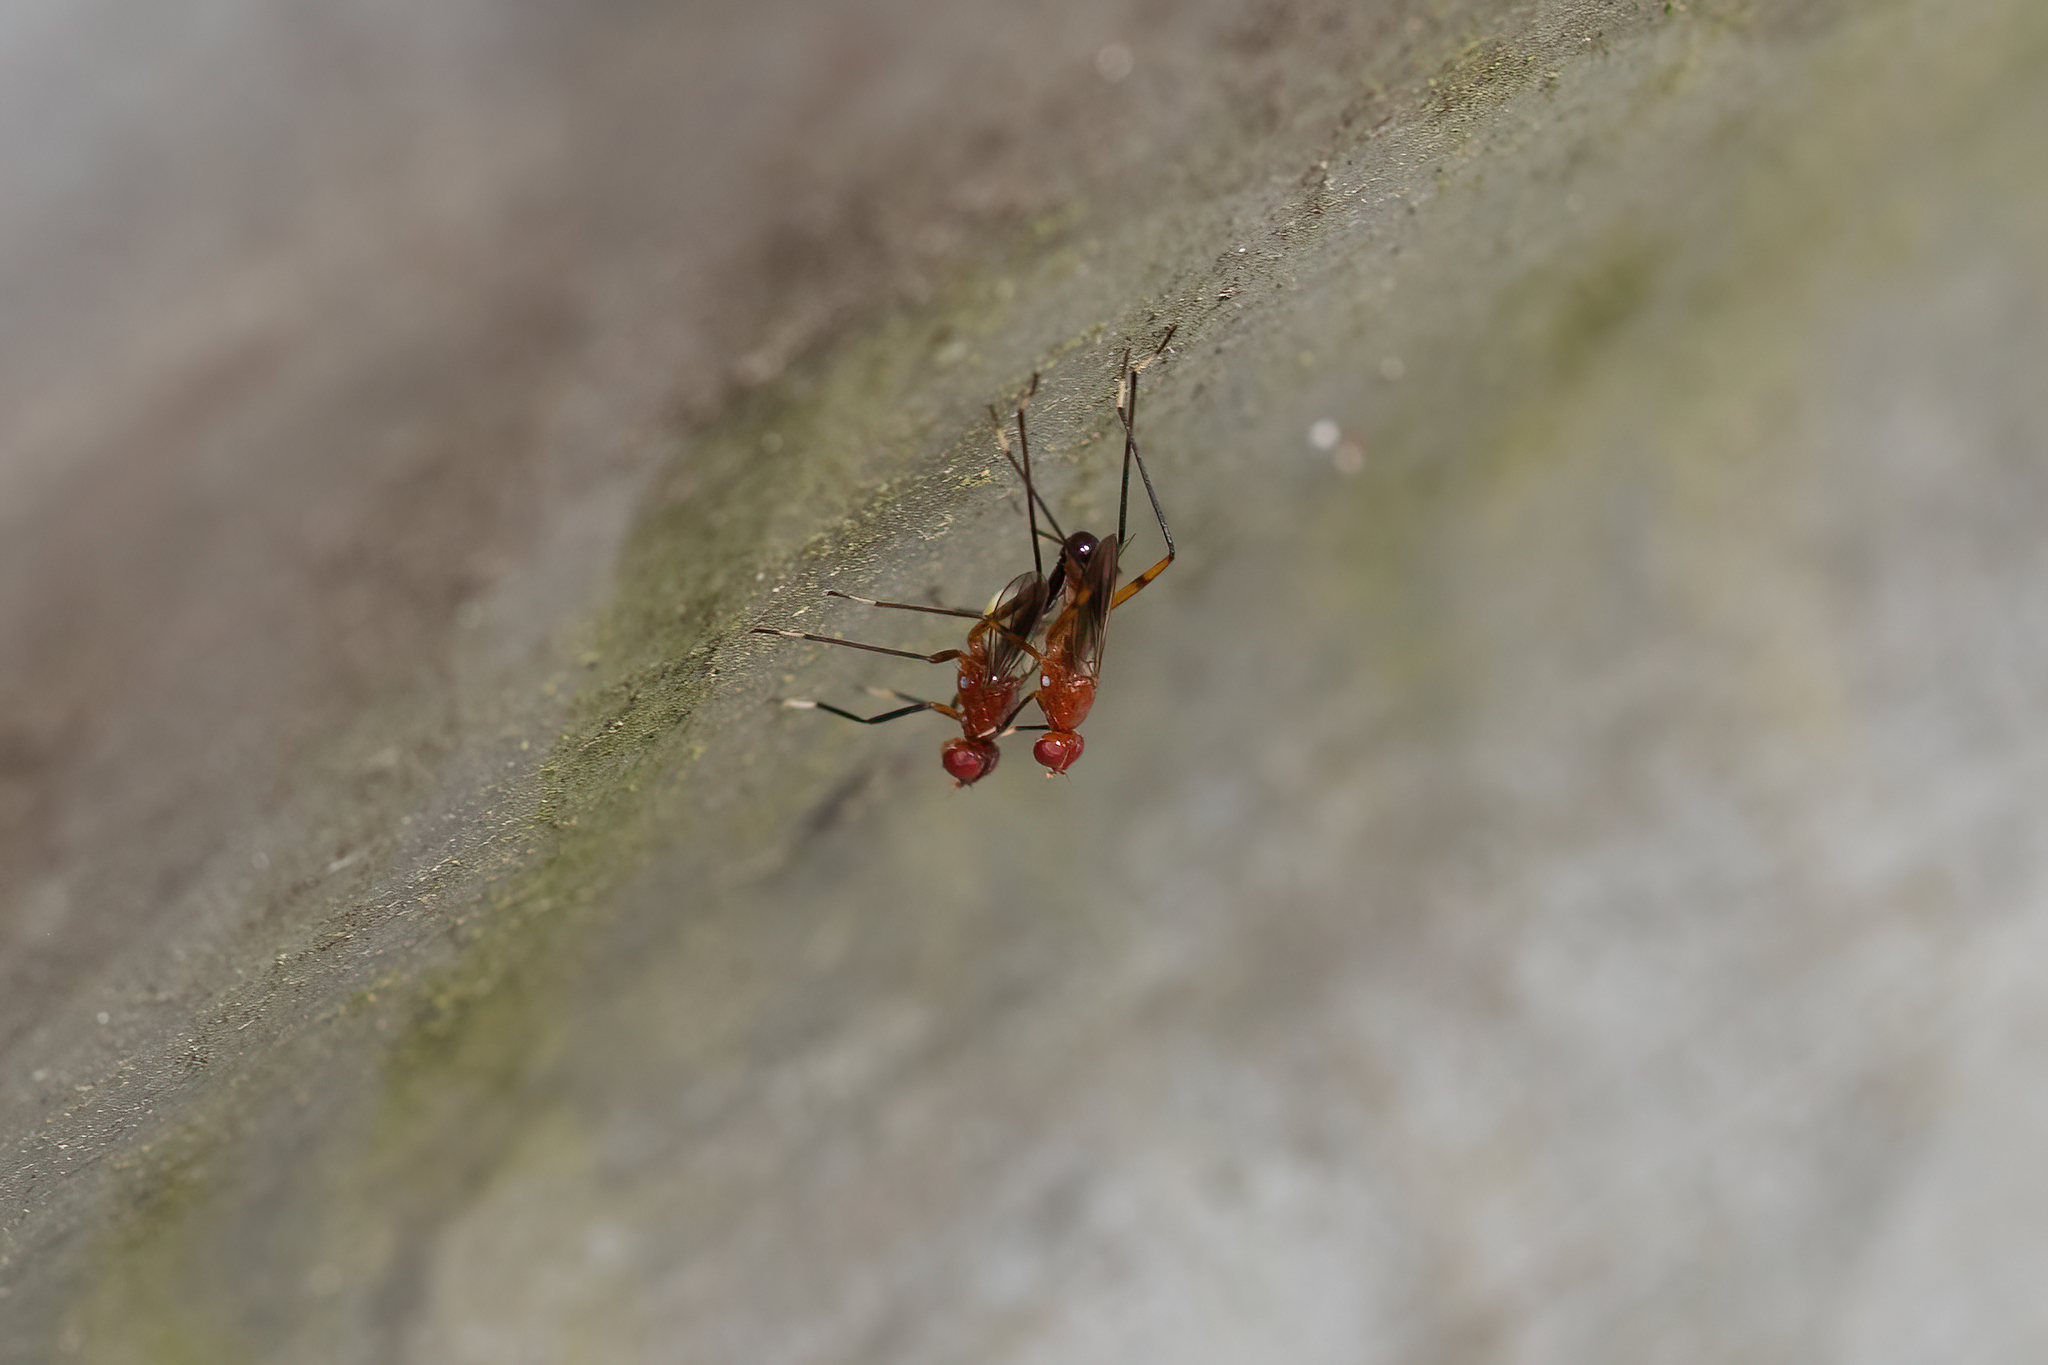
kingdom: Animalia
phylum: Arthropoda
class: Insecta
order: Diptera
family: Micropezidae
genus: Grallipeza
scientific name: Grallipeza nebulosa
